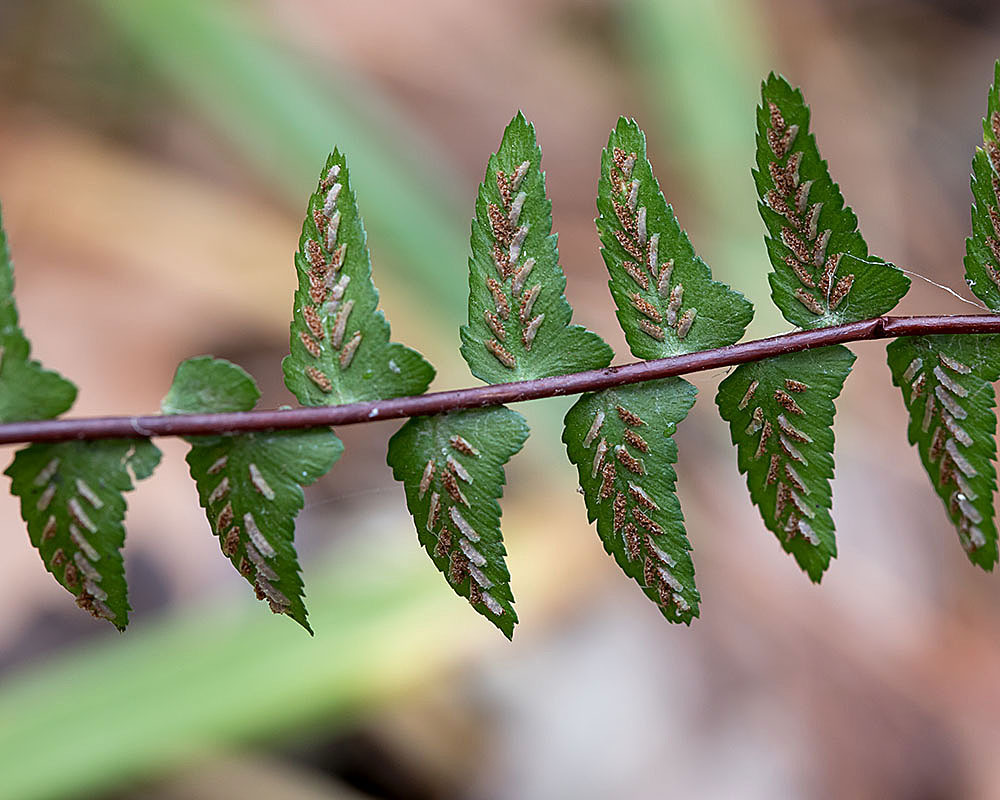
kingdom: Plantae
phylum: Tracheophyta
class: Polypodiopsida
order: Polypodiales
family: Aspleniaceae
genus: Asplenium
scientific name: Asplenium platyneuron
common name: Ebony spleenwort
